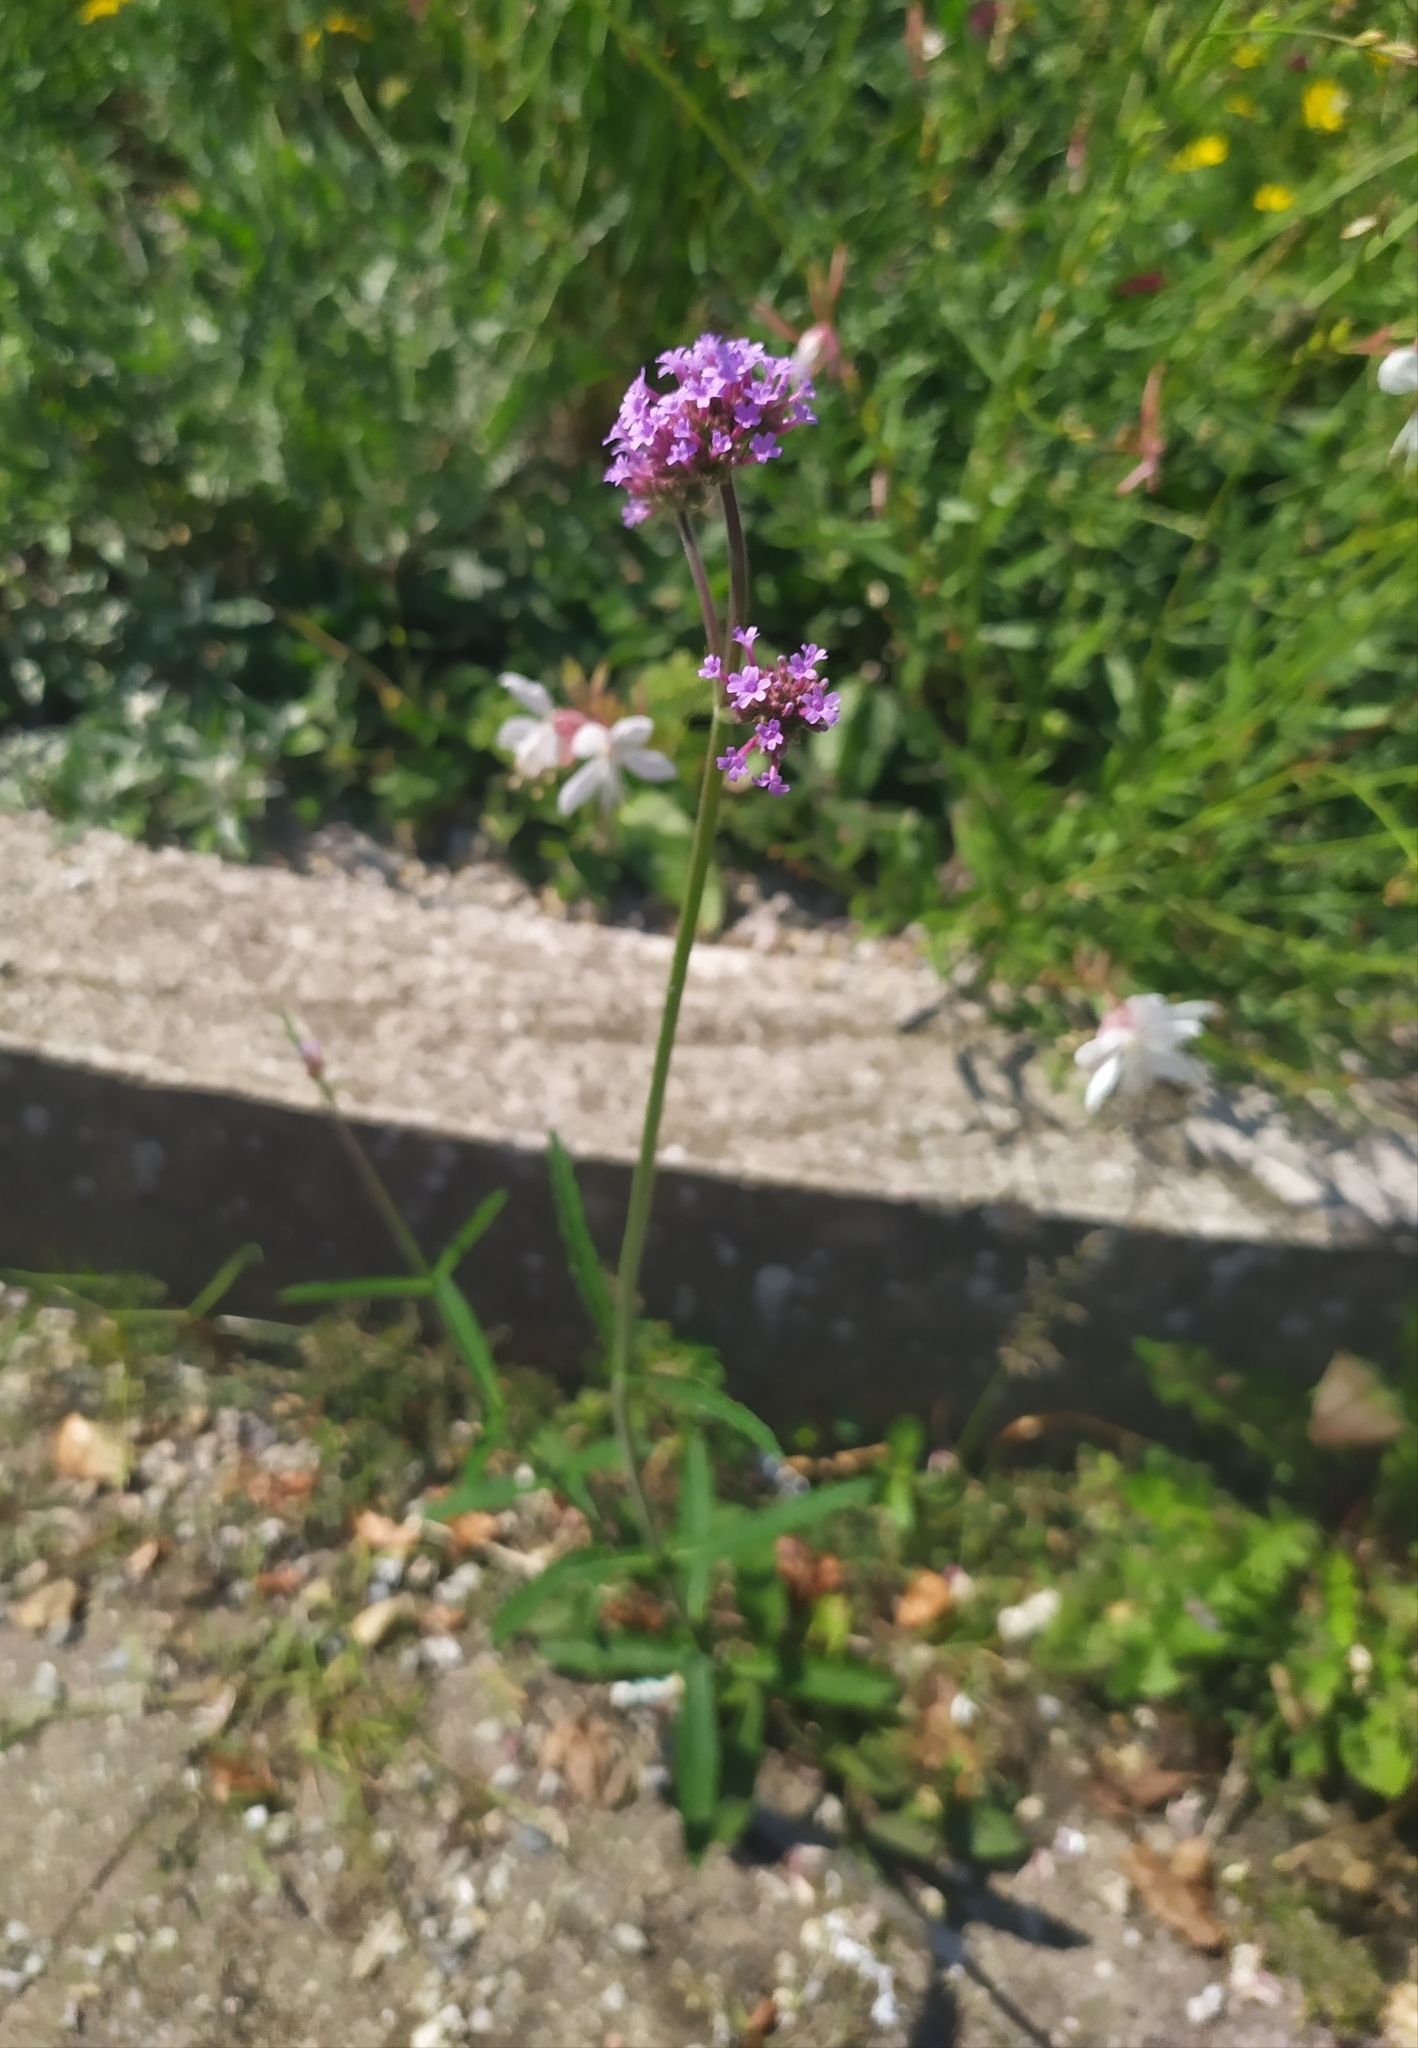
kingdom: Plantae
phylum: Tracheophyta
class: Magnoliopsida
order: Lamiales
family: Verbenaceae
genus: Verbena
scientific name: Verbena bonariensis
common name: Purpletop vervain
